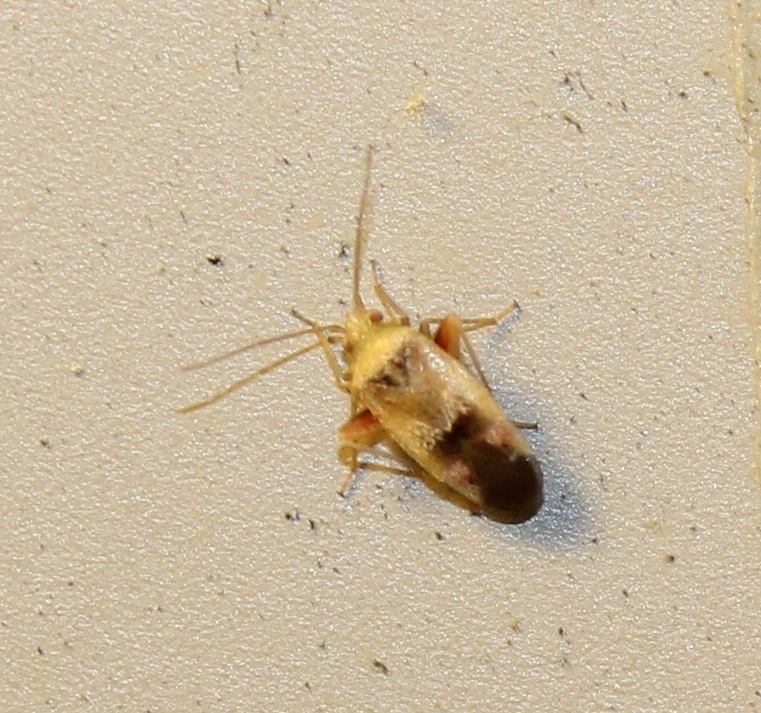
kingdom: Animalia
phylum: Arthropoda
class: Insecta
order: Hemiptera
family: Miridae
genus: Parthenicus
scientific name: Parthenicus juniperi
